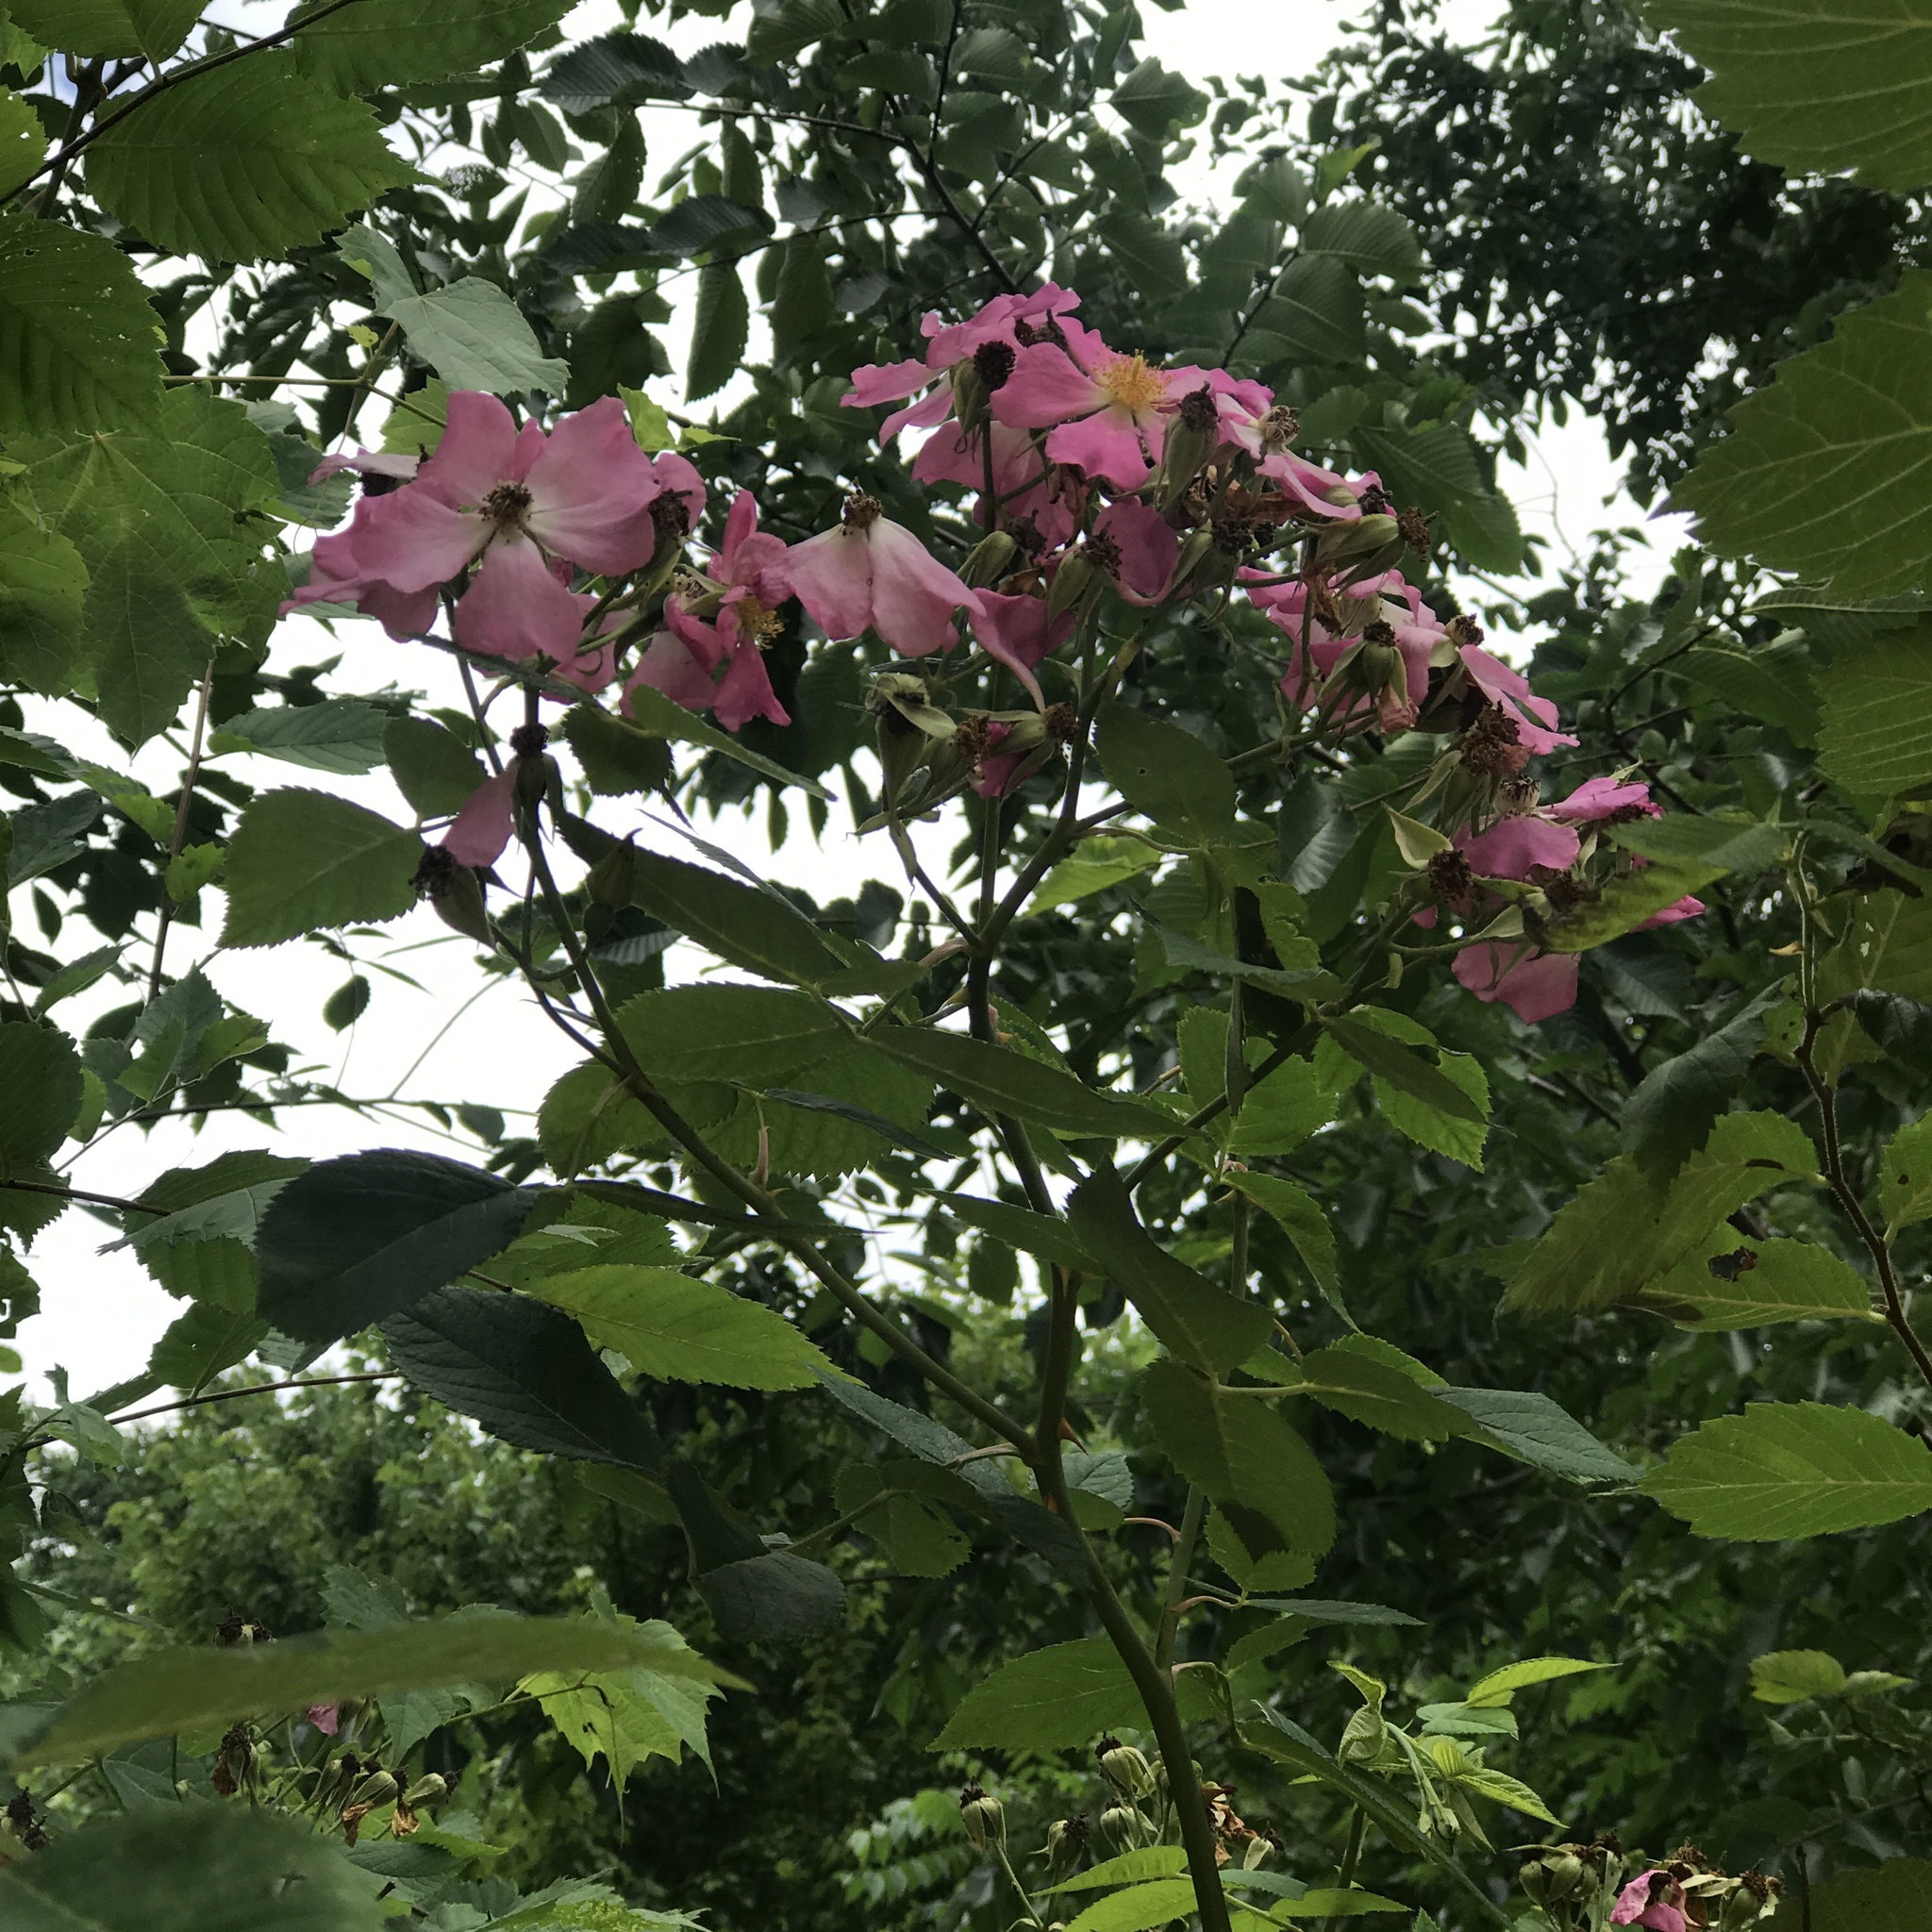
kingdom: Plantae
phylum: Tracheophyta
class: Magnoliopsida
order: Rosales
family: Rosaceae
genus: Rosa
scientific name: Rosa setigera
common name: Prairie rose
